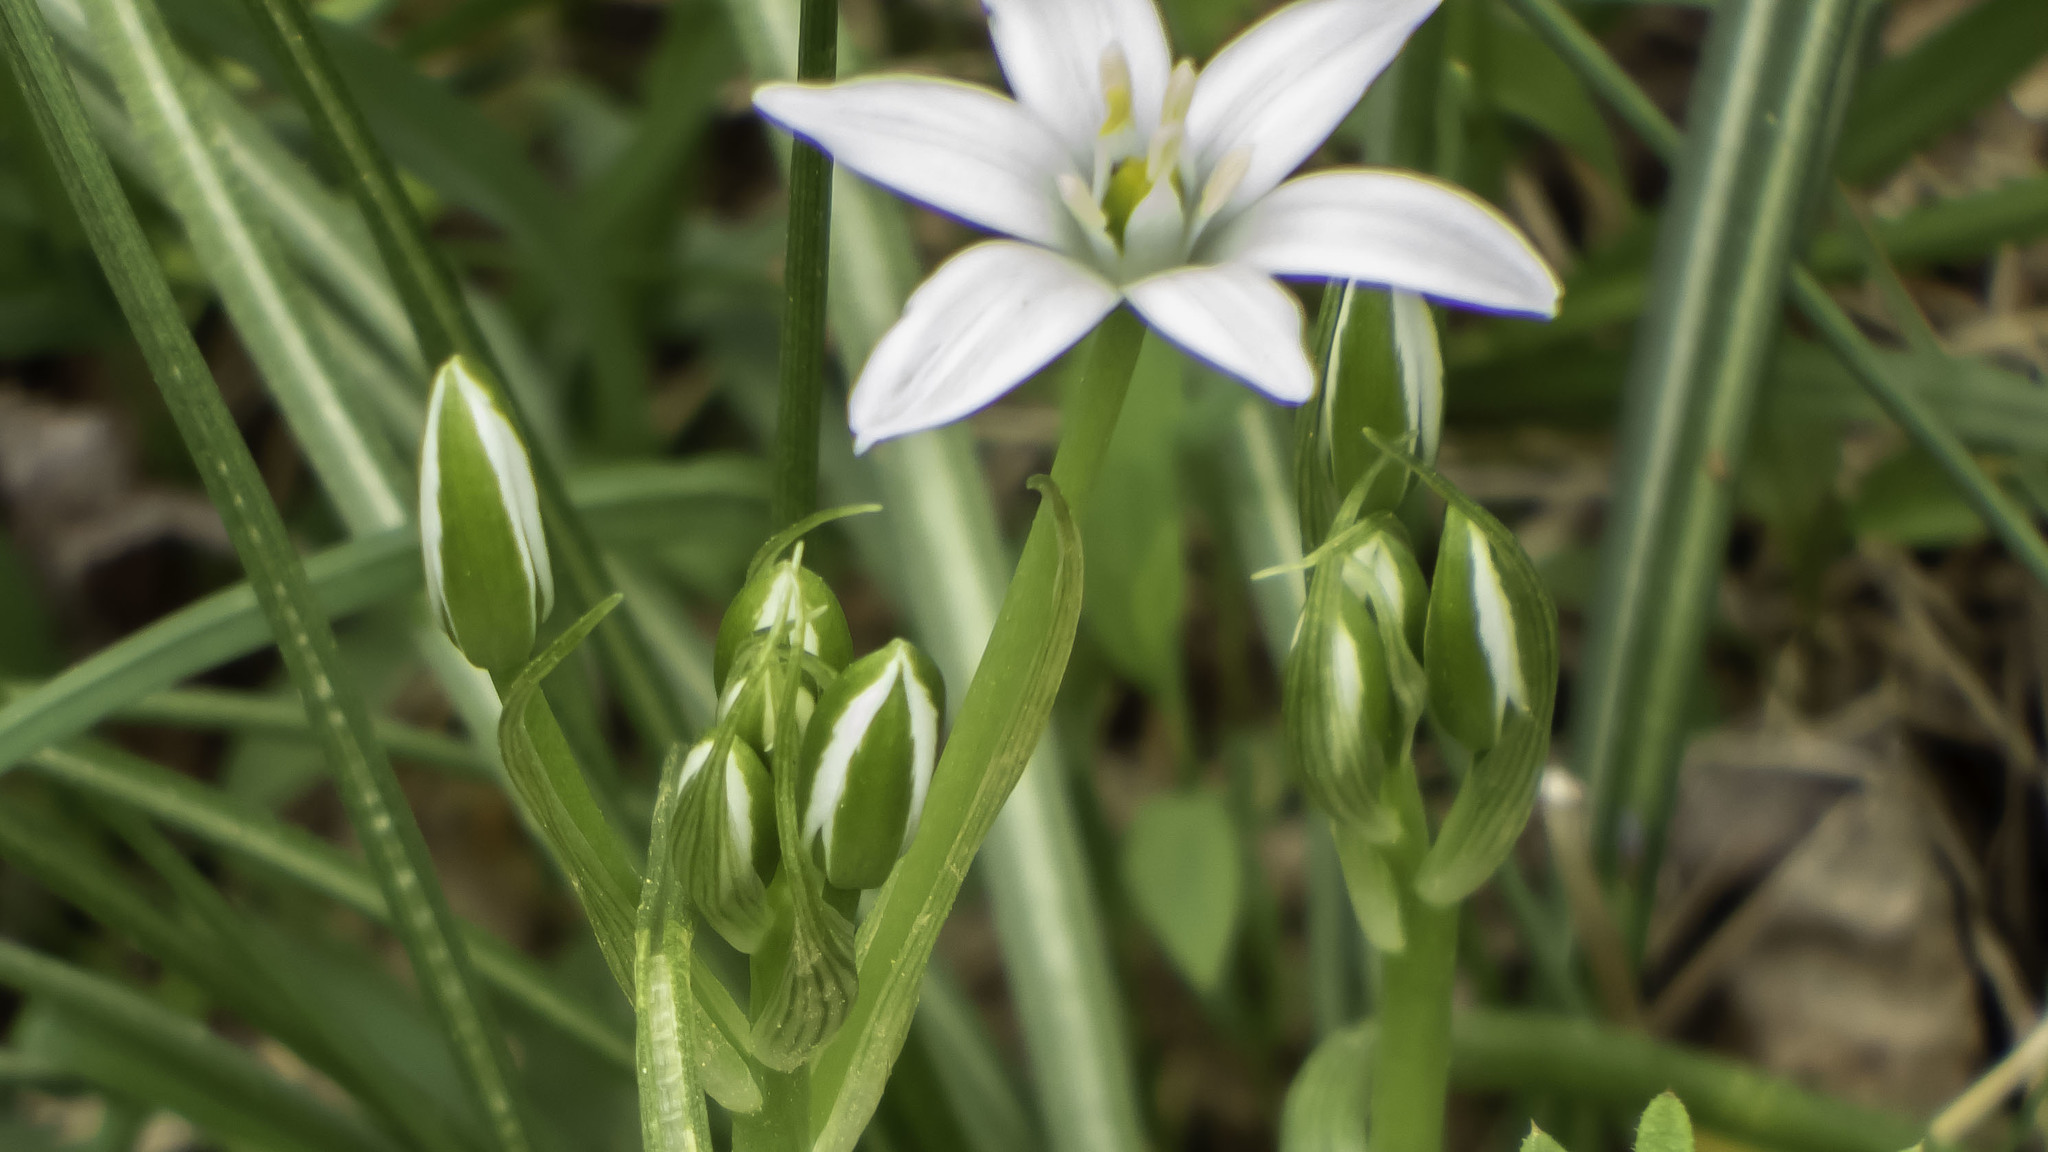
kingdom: Plantae
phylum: Tracheophyta
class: Liliopsida
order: Asparagales
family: Asparagaceae
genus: Ornithogalum
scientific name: Ornithogalum umbellatum
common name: Garden star-of-bethlehem
